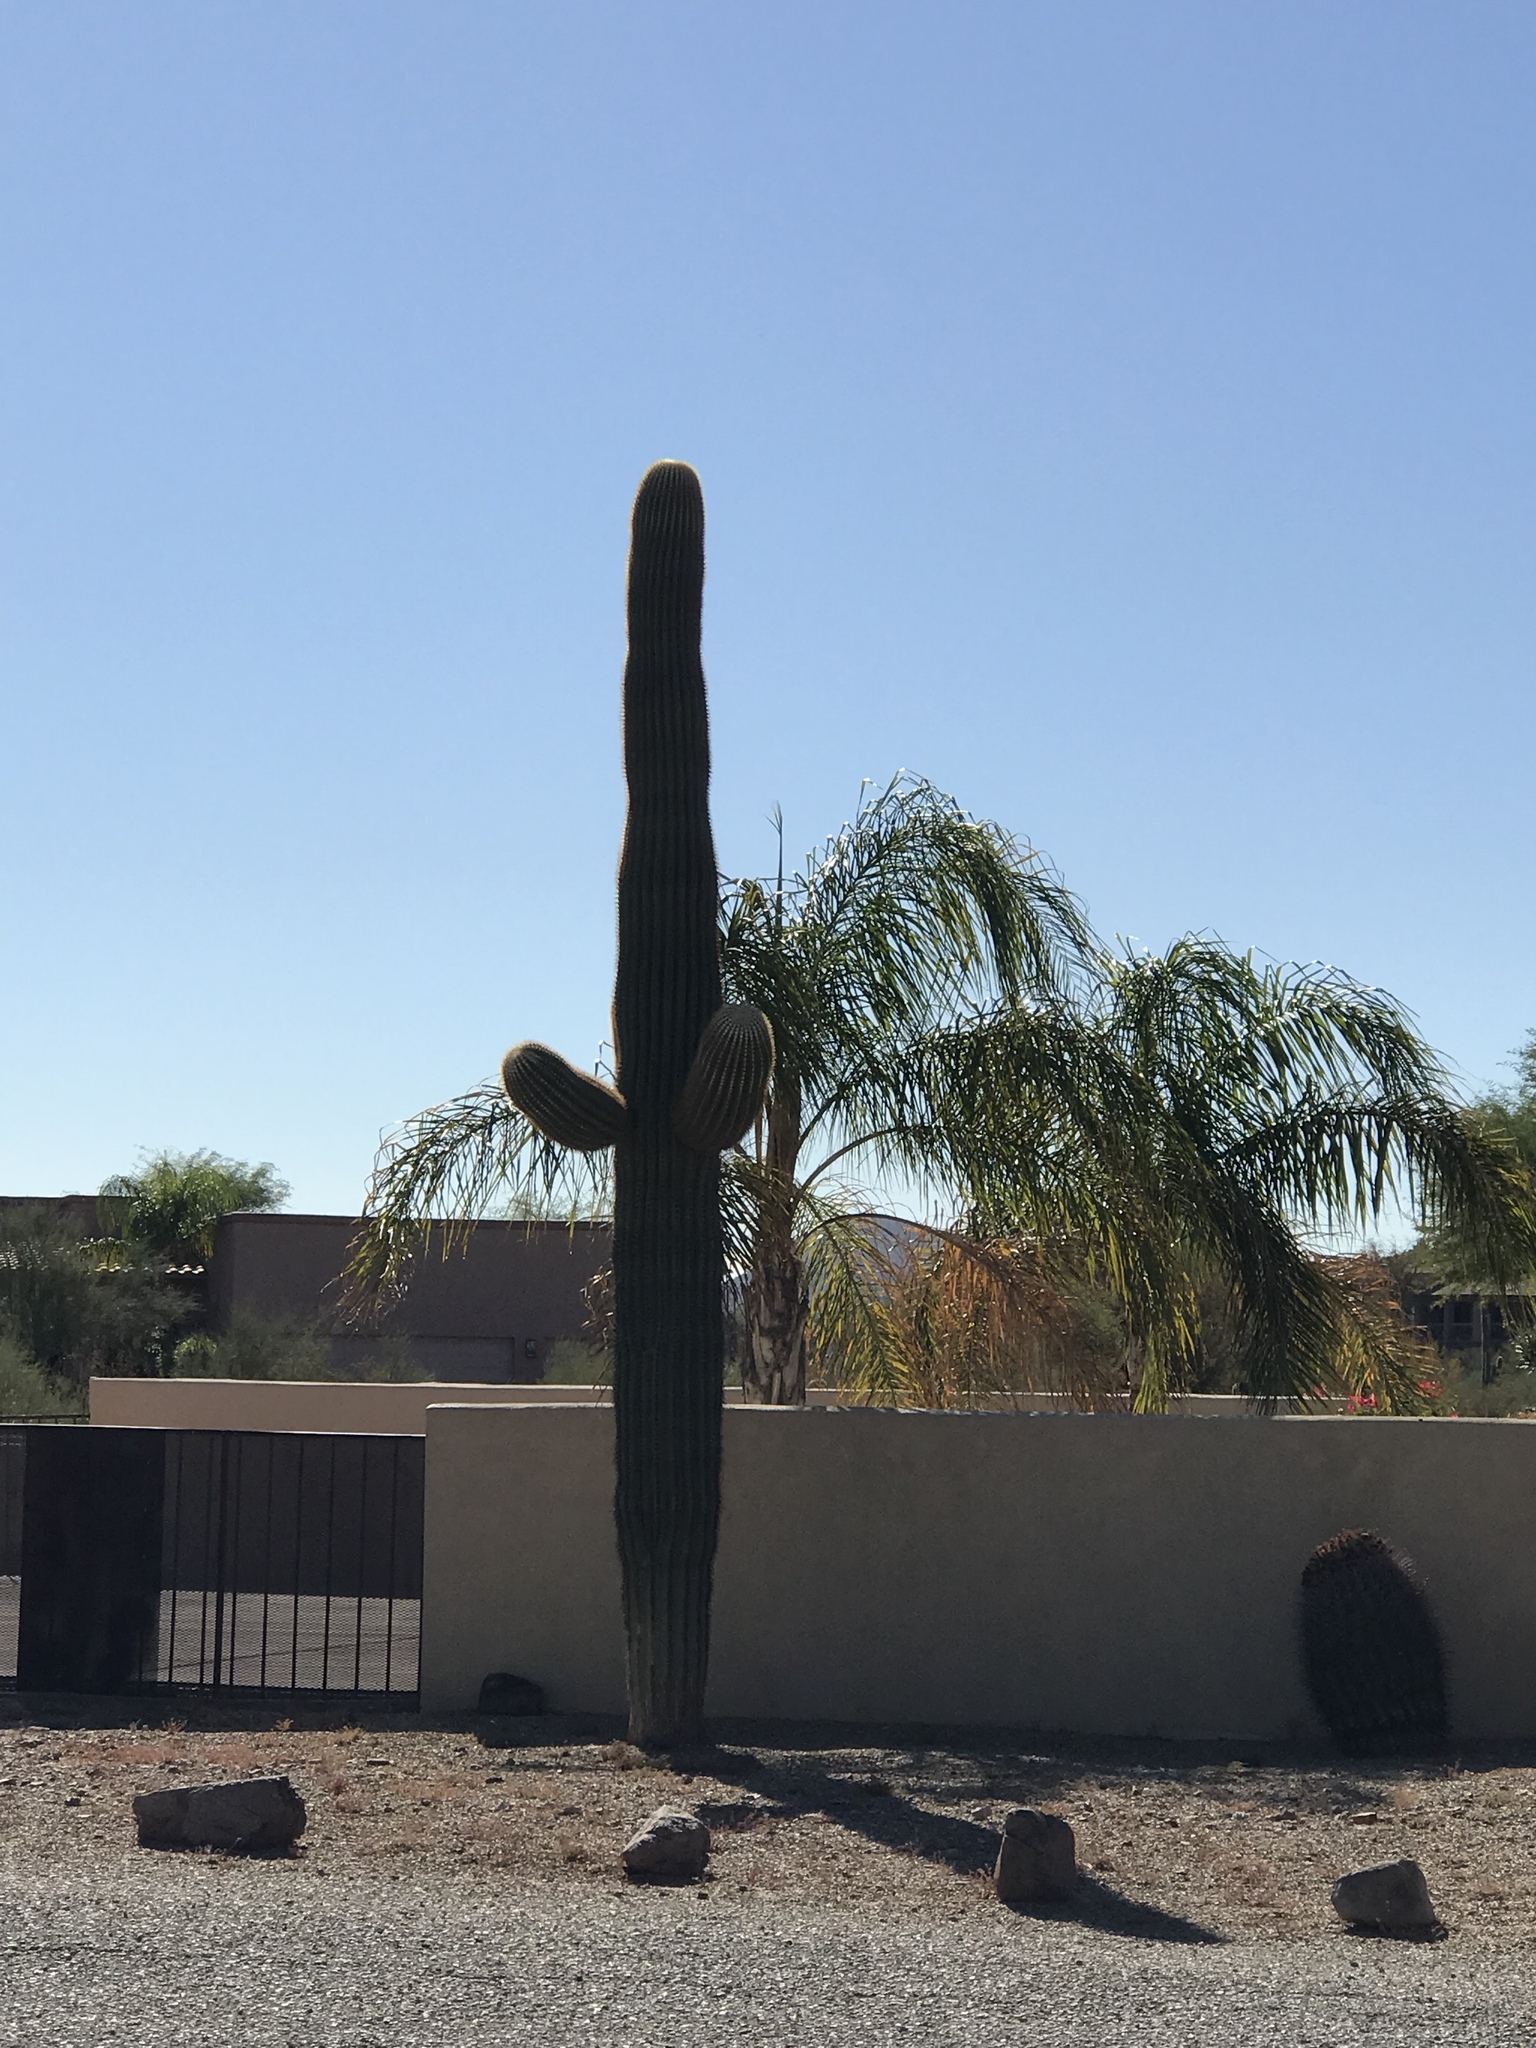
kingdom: Plantae
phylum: Tracheophyta
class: Magnoliopsida
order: Caryophyllales
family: Cactaceae
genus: Carnegiea
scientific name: Carnegiea gigantea
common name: Saguaro
